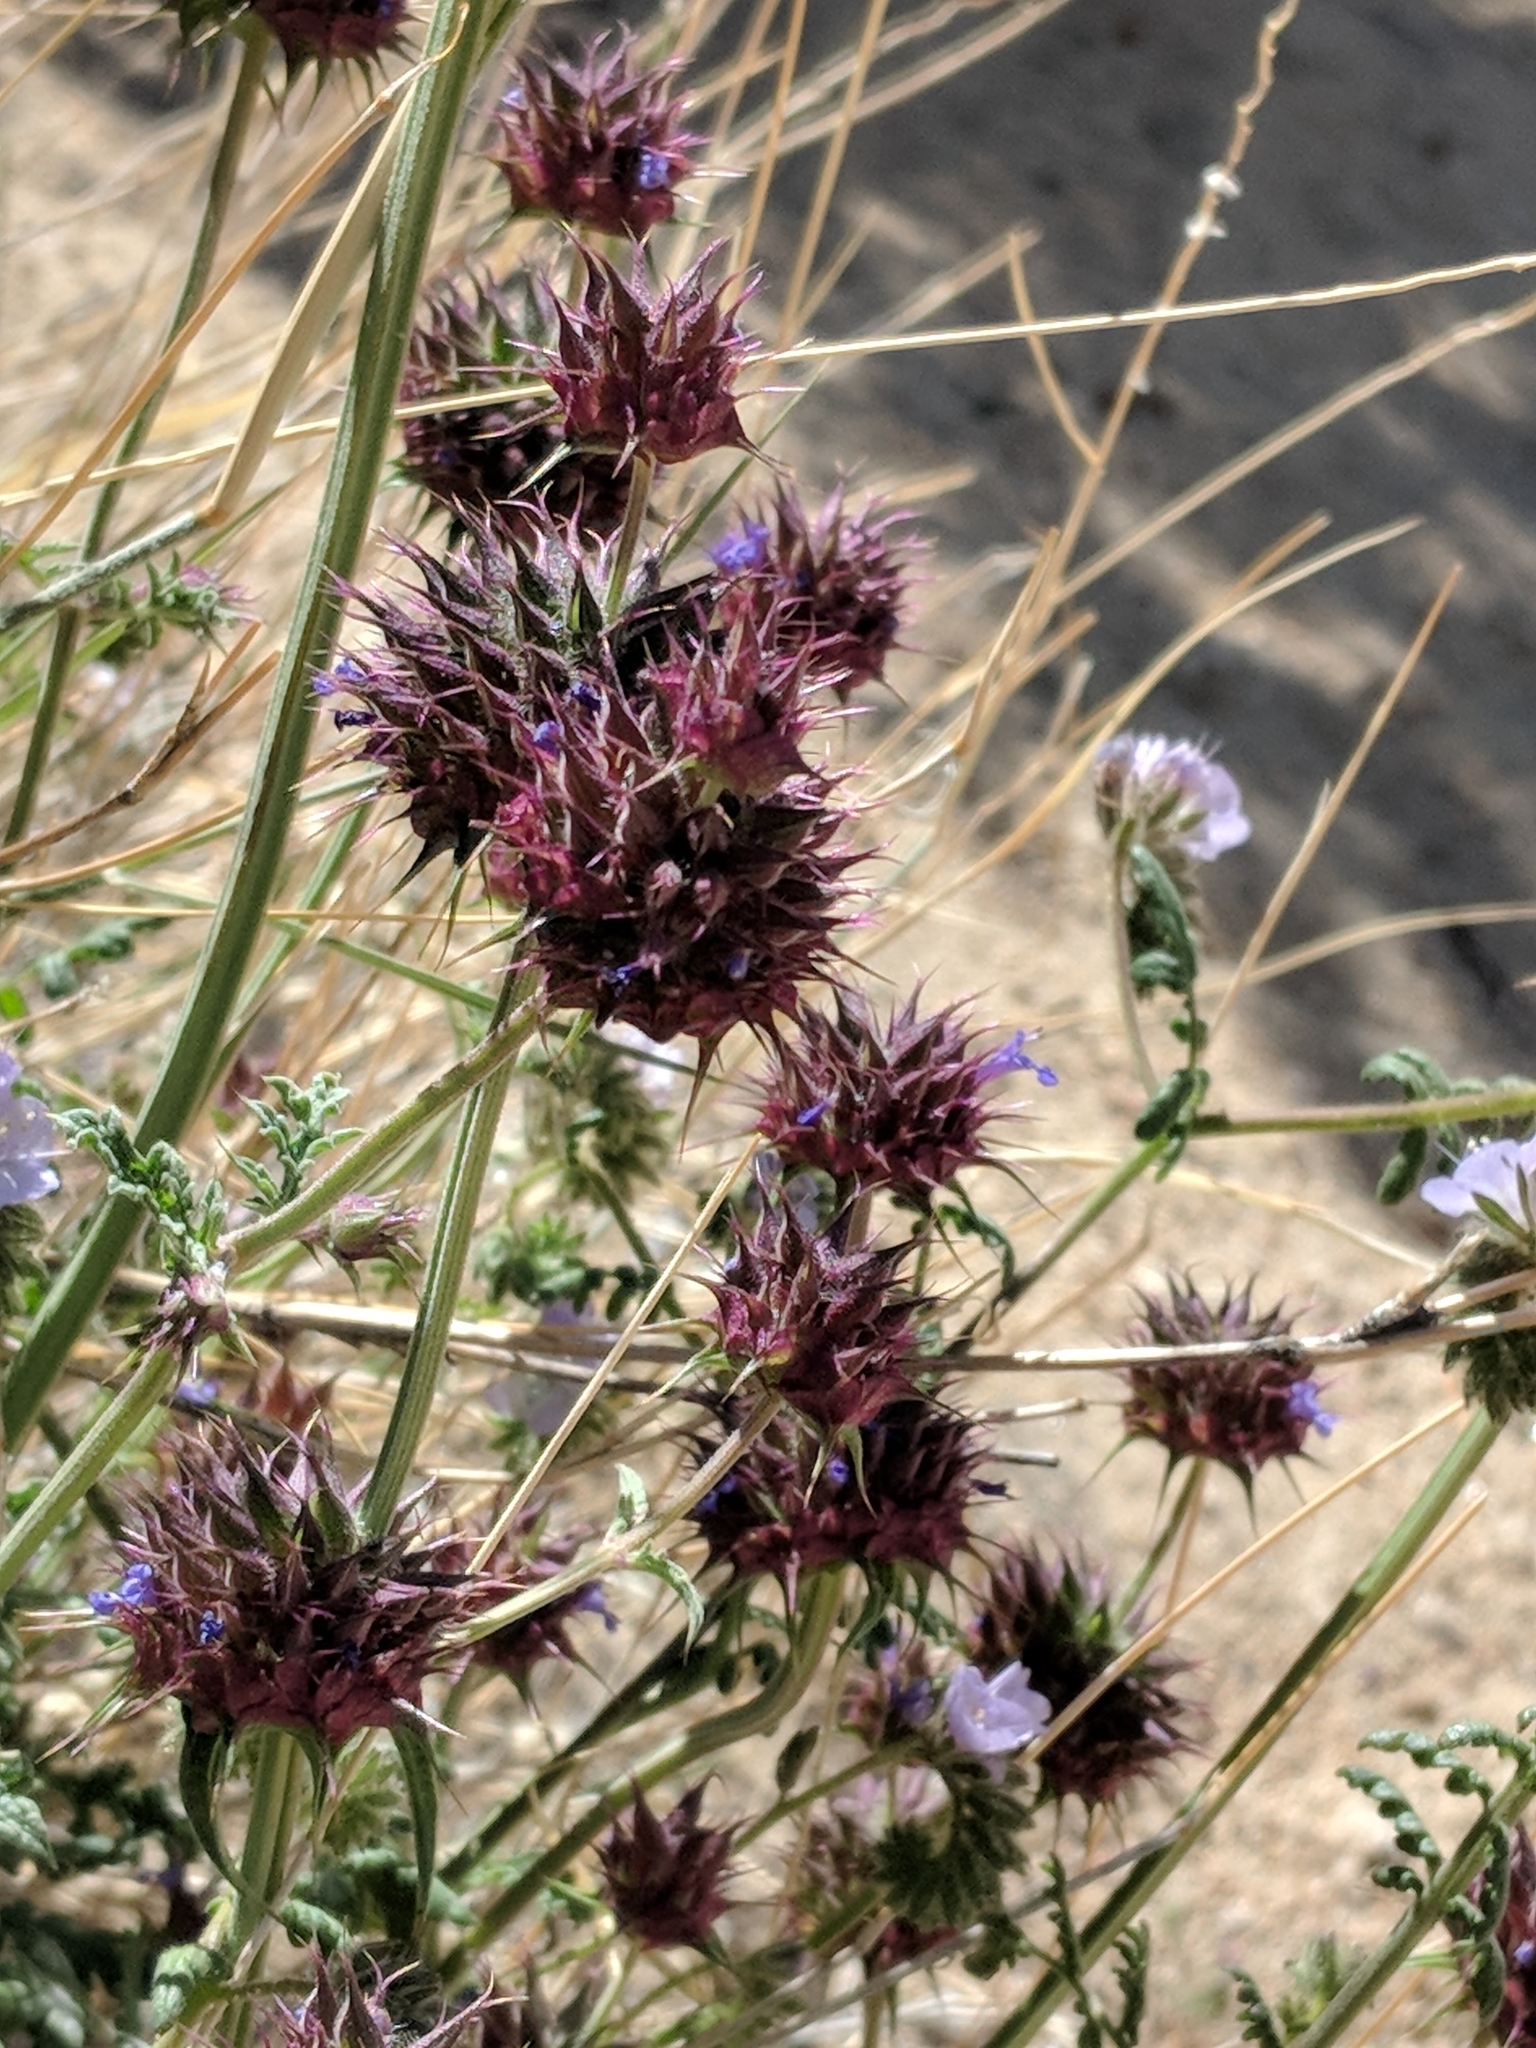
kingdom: Plantae
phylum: Tracheophyta
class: Magnoliopsida
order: Lamiales
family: Lamiaceae
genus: Salvia
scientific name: Salvia columbariae
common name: Chia
